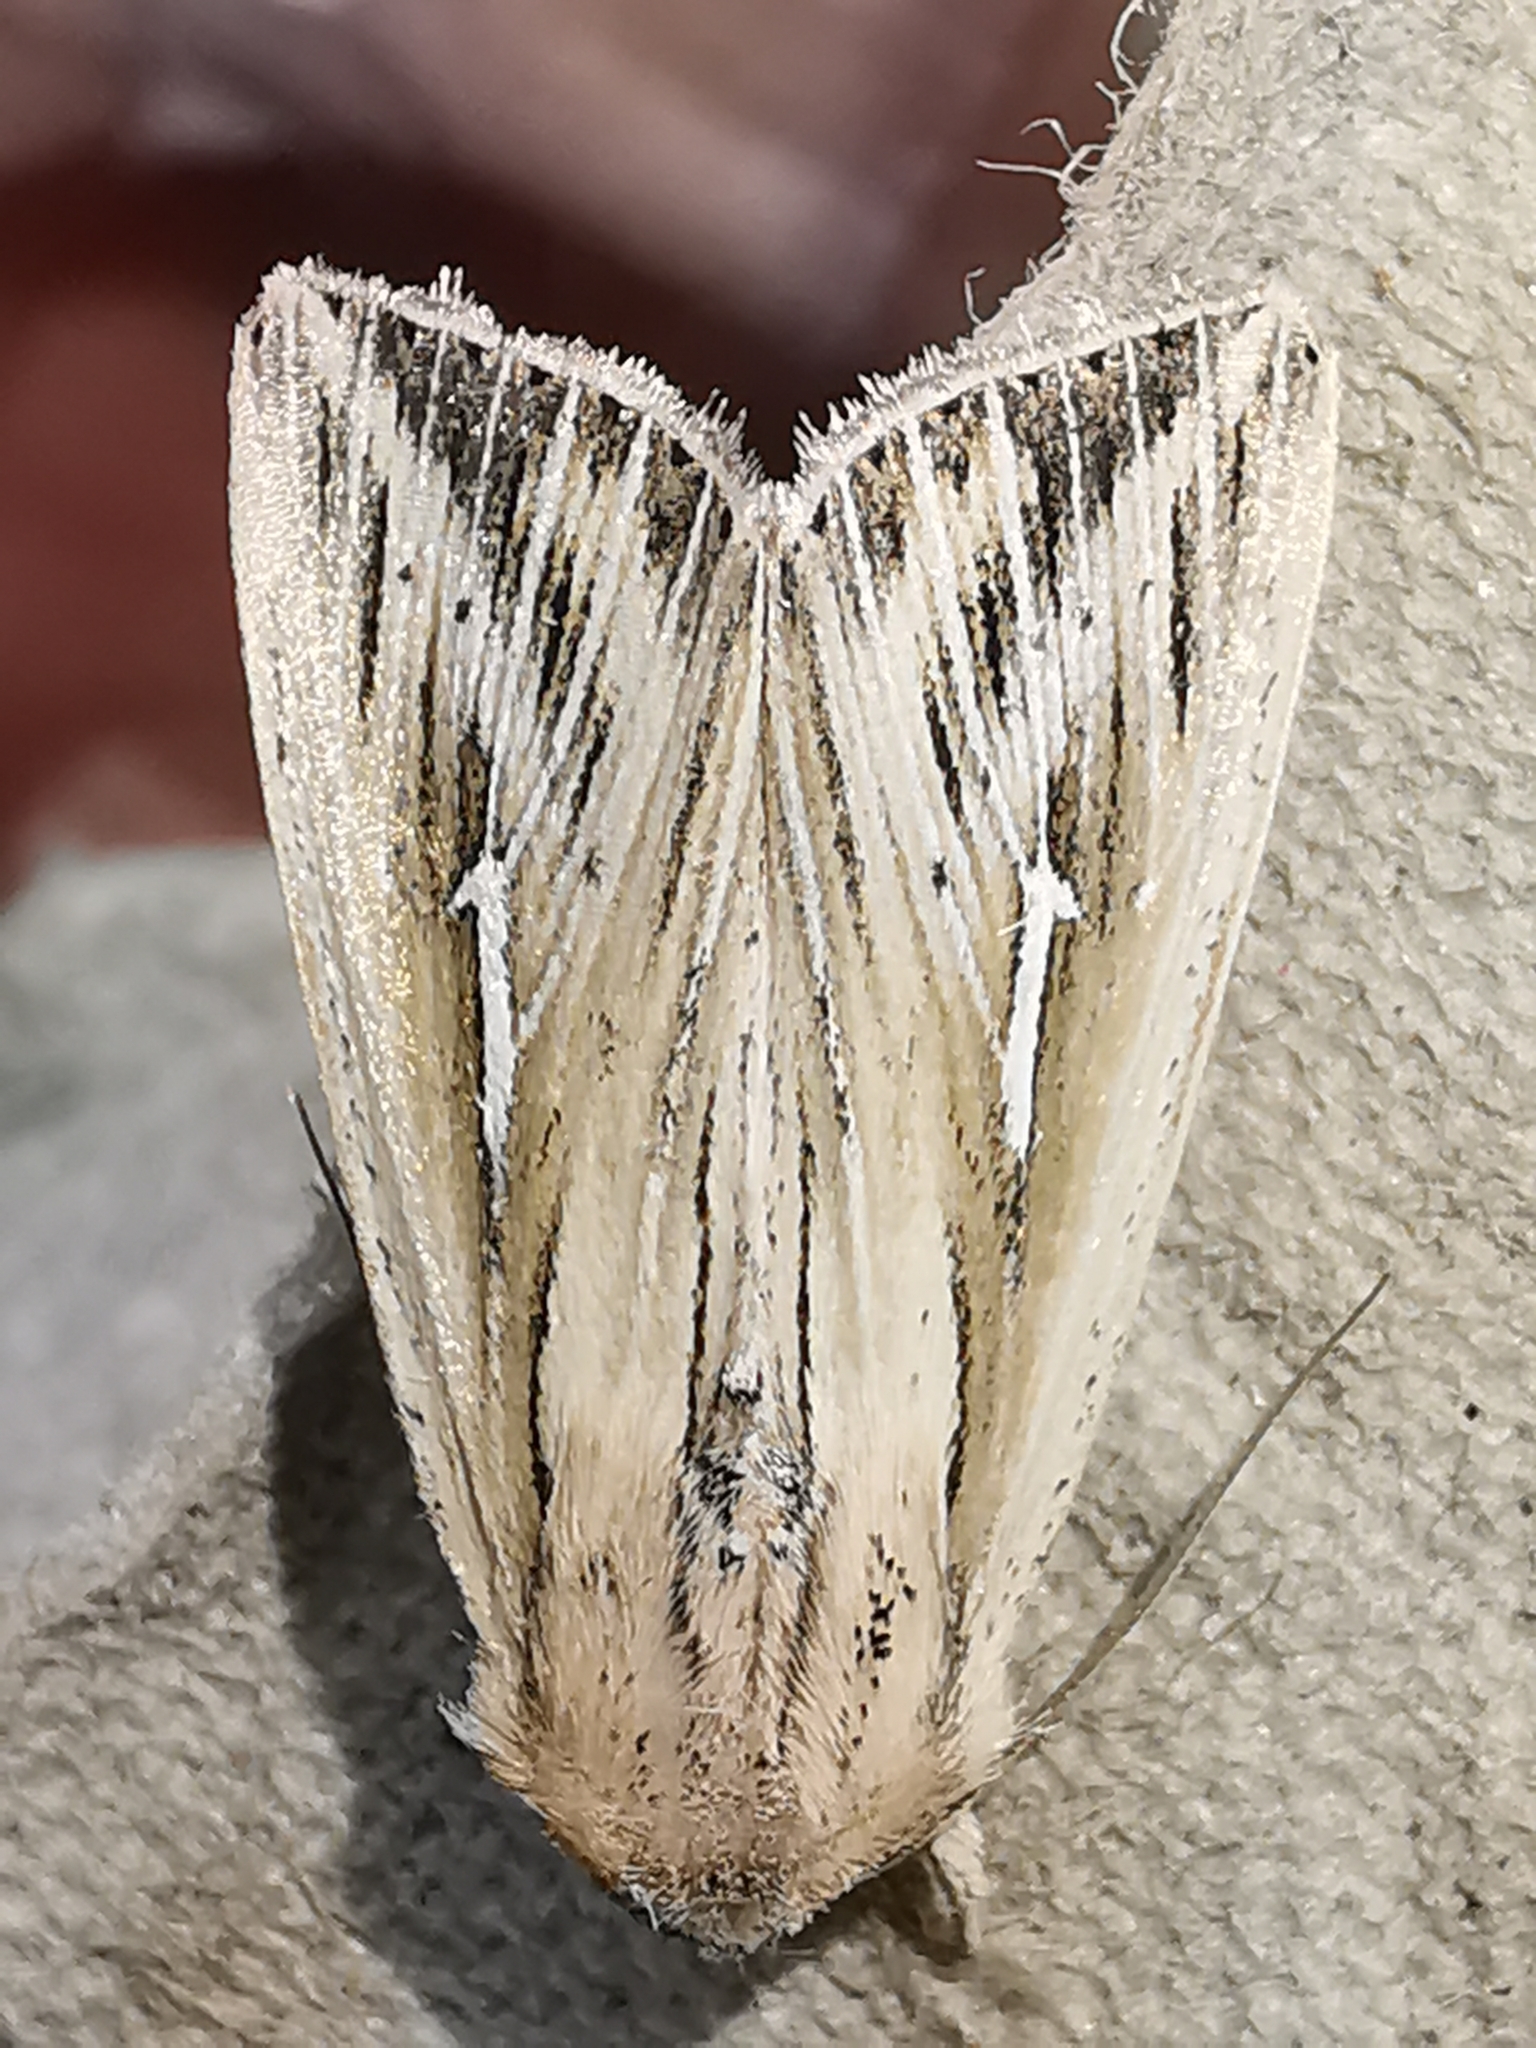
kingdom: Animalia
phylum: Arthropoda
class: Insecta
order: Lepidoptera
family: Noctuidae
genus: Mythimna
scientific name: Mythimna l-album
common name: L-album wainscot
